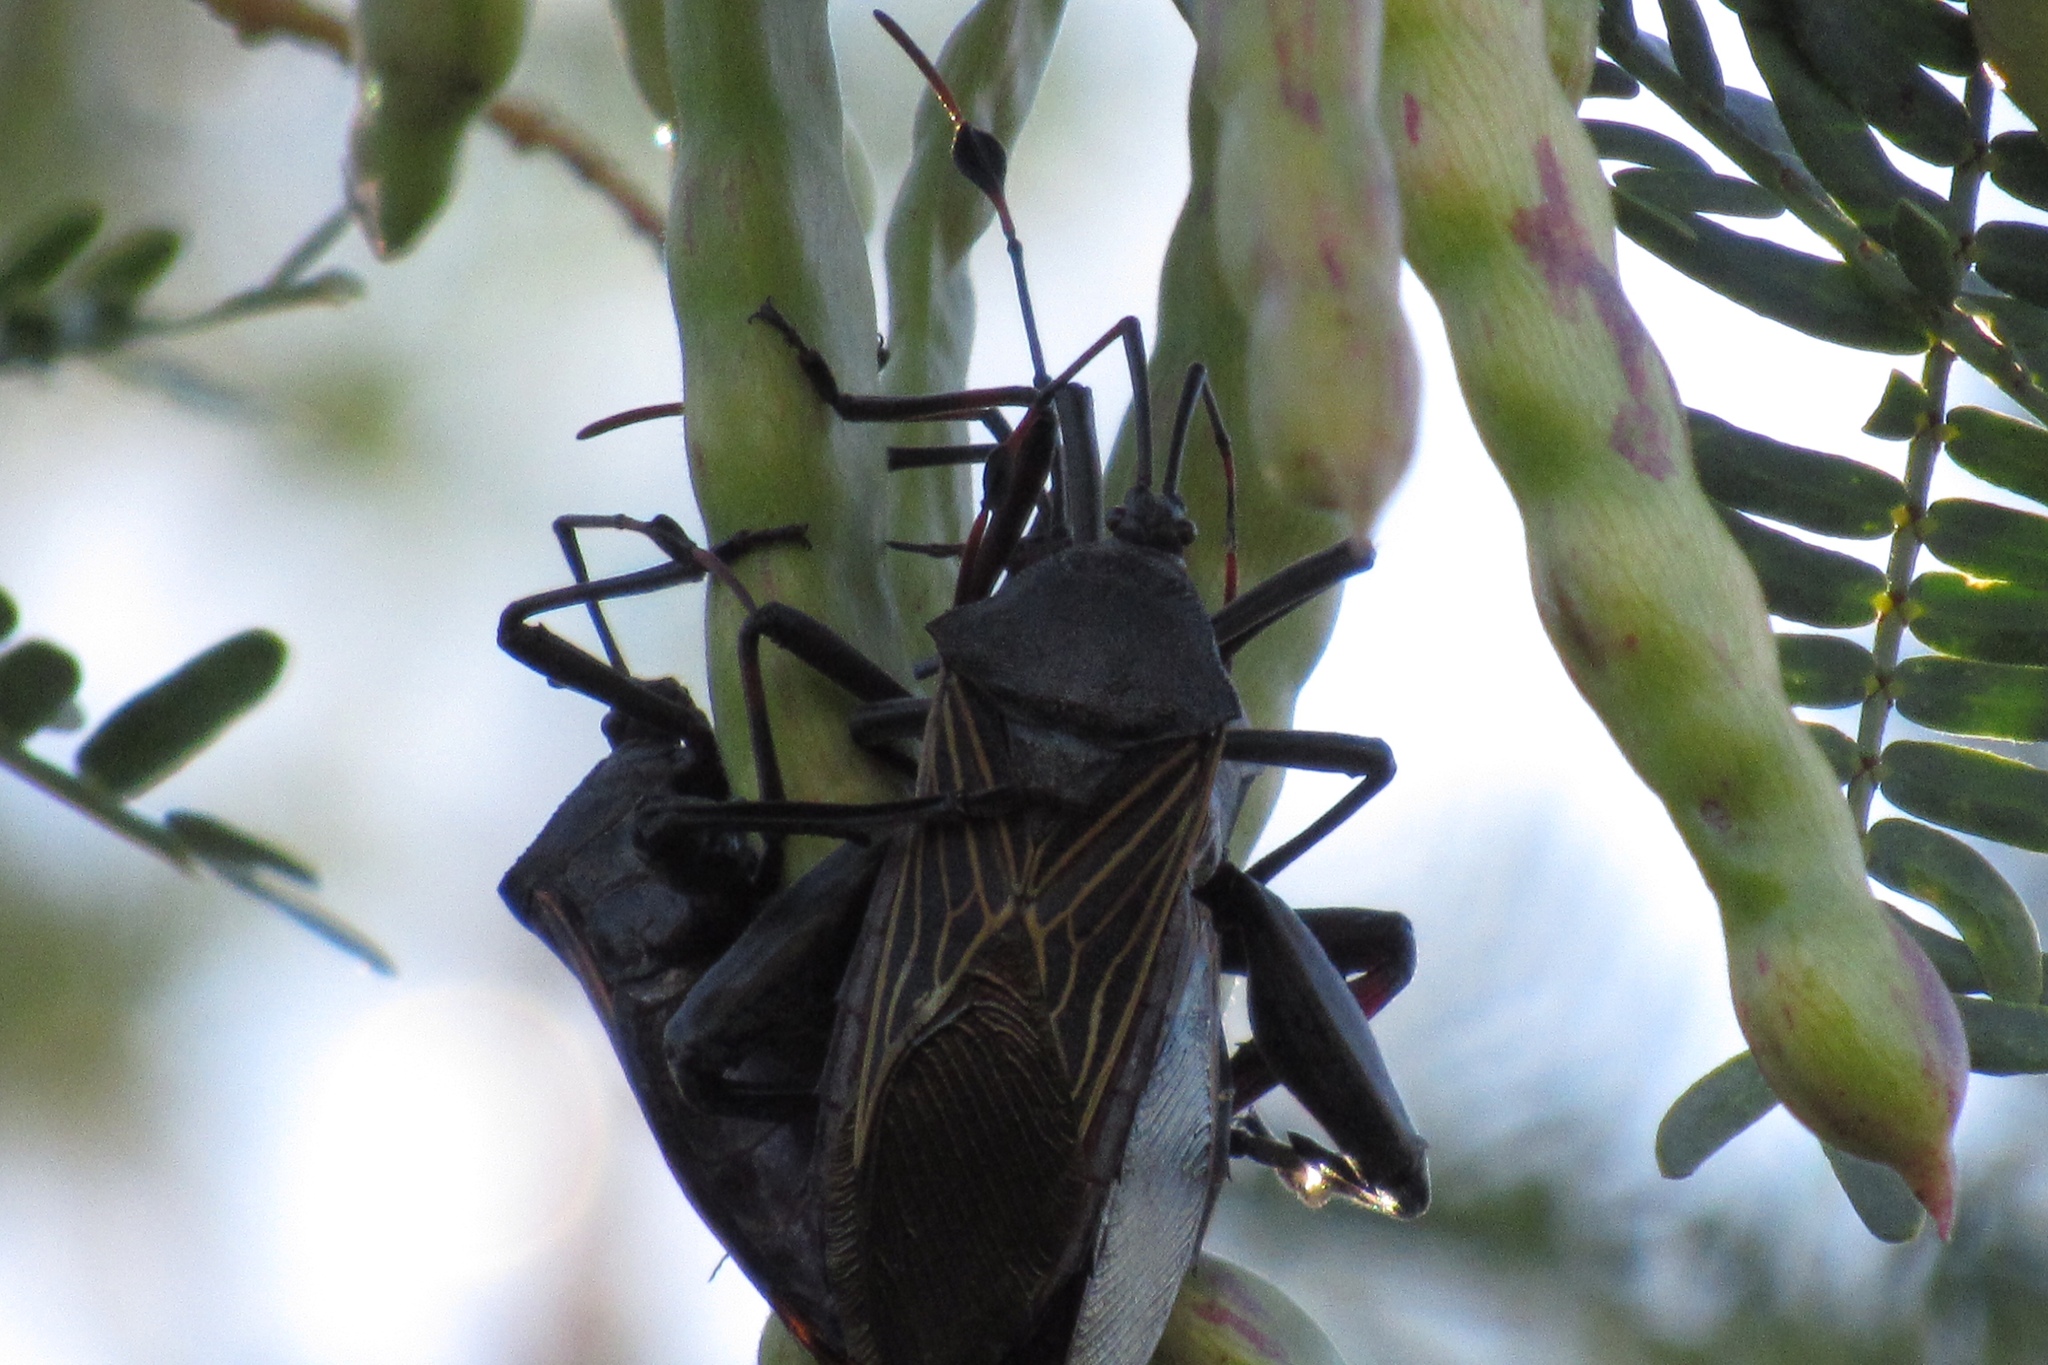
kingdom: Animalia
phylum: Arthropoda
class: Insecta
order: Hemiptera
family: Coreidae
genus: Thasus
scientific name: Thasus neocalifornicus
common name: Giant mesquite bug
